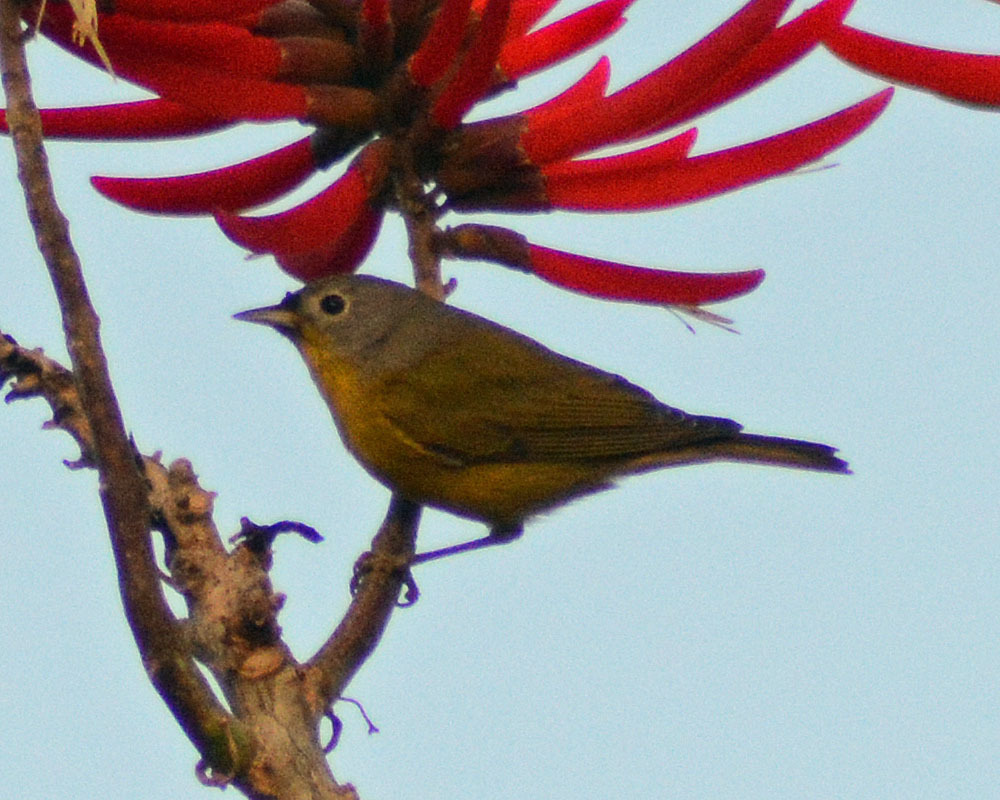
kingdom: Animalia
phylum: Chordata
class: Aves
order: Passeriformes
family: Parulidae
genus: Leiothlypis
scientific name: Leiothlypis ruficapilla
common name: Nashville warbler
